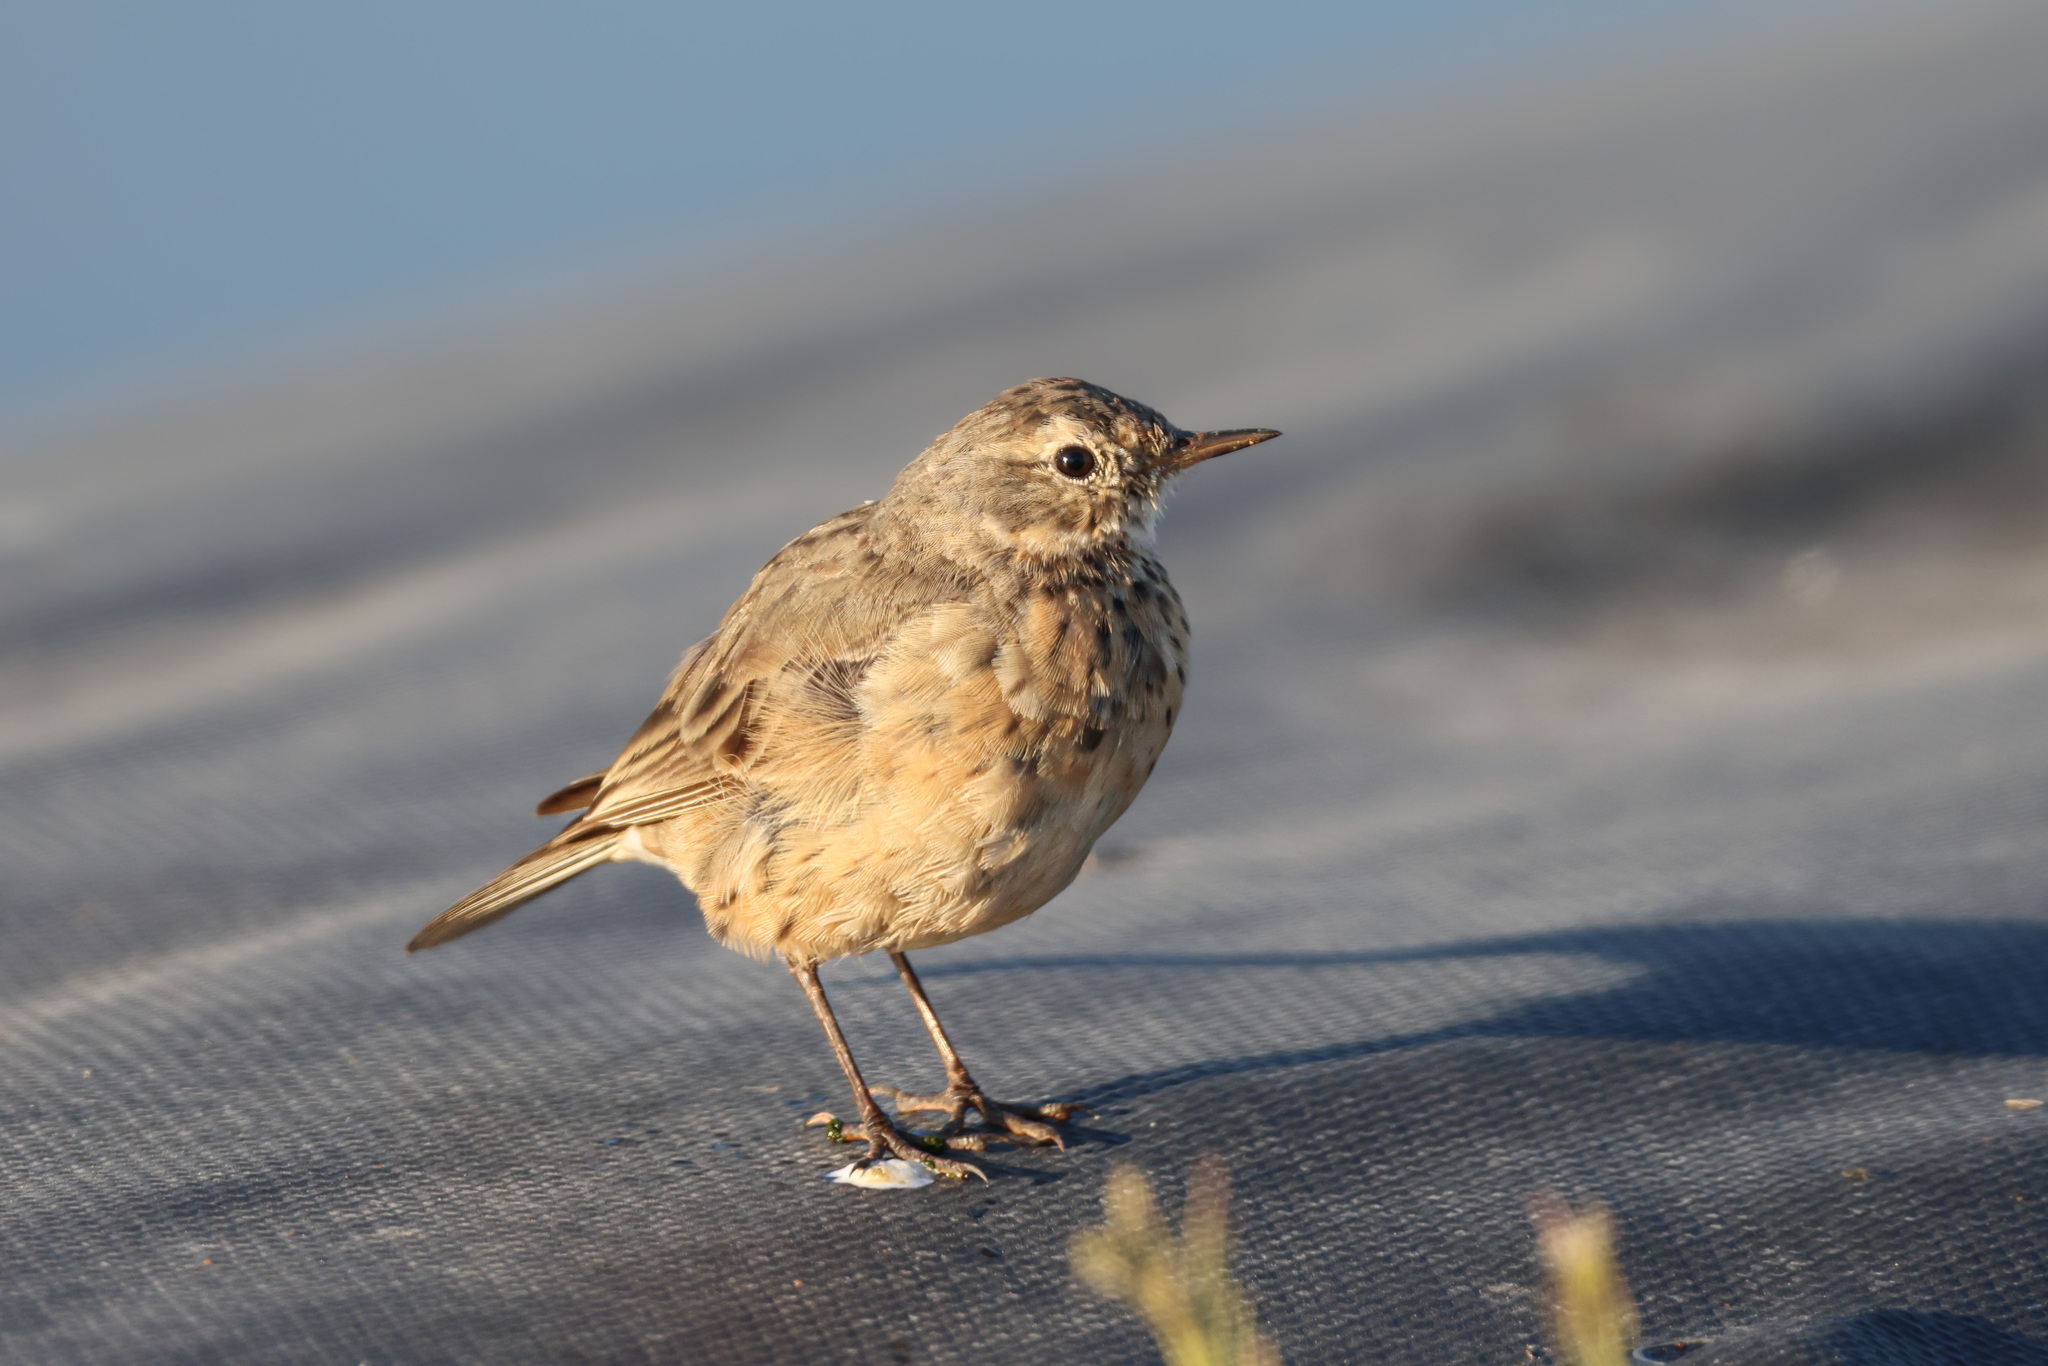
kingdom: Animalia
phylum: Chordata
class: Aves
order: Passeriformes
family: Motacillidae
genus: Anthus
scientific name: Anthus rubescens
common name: Buff-bellied pipit
